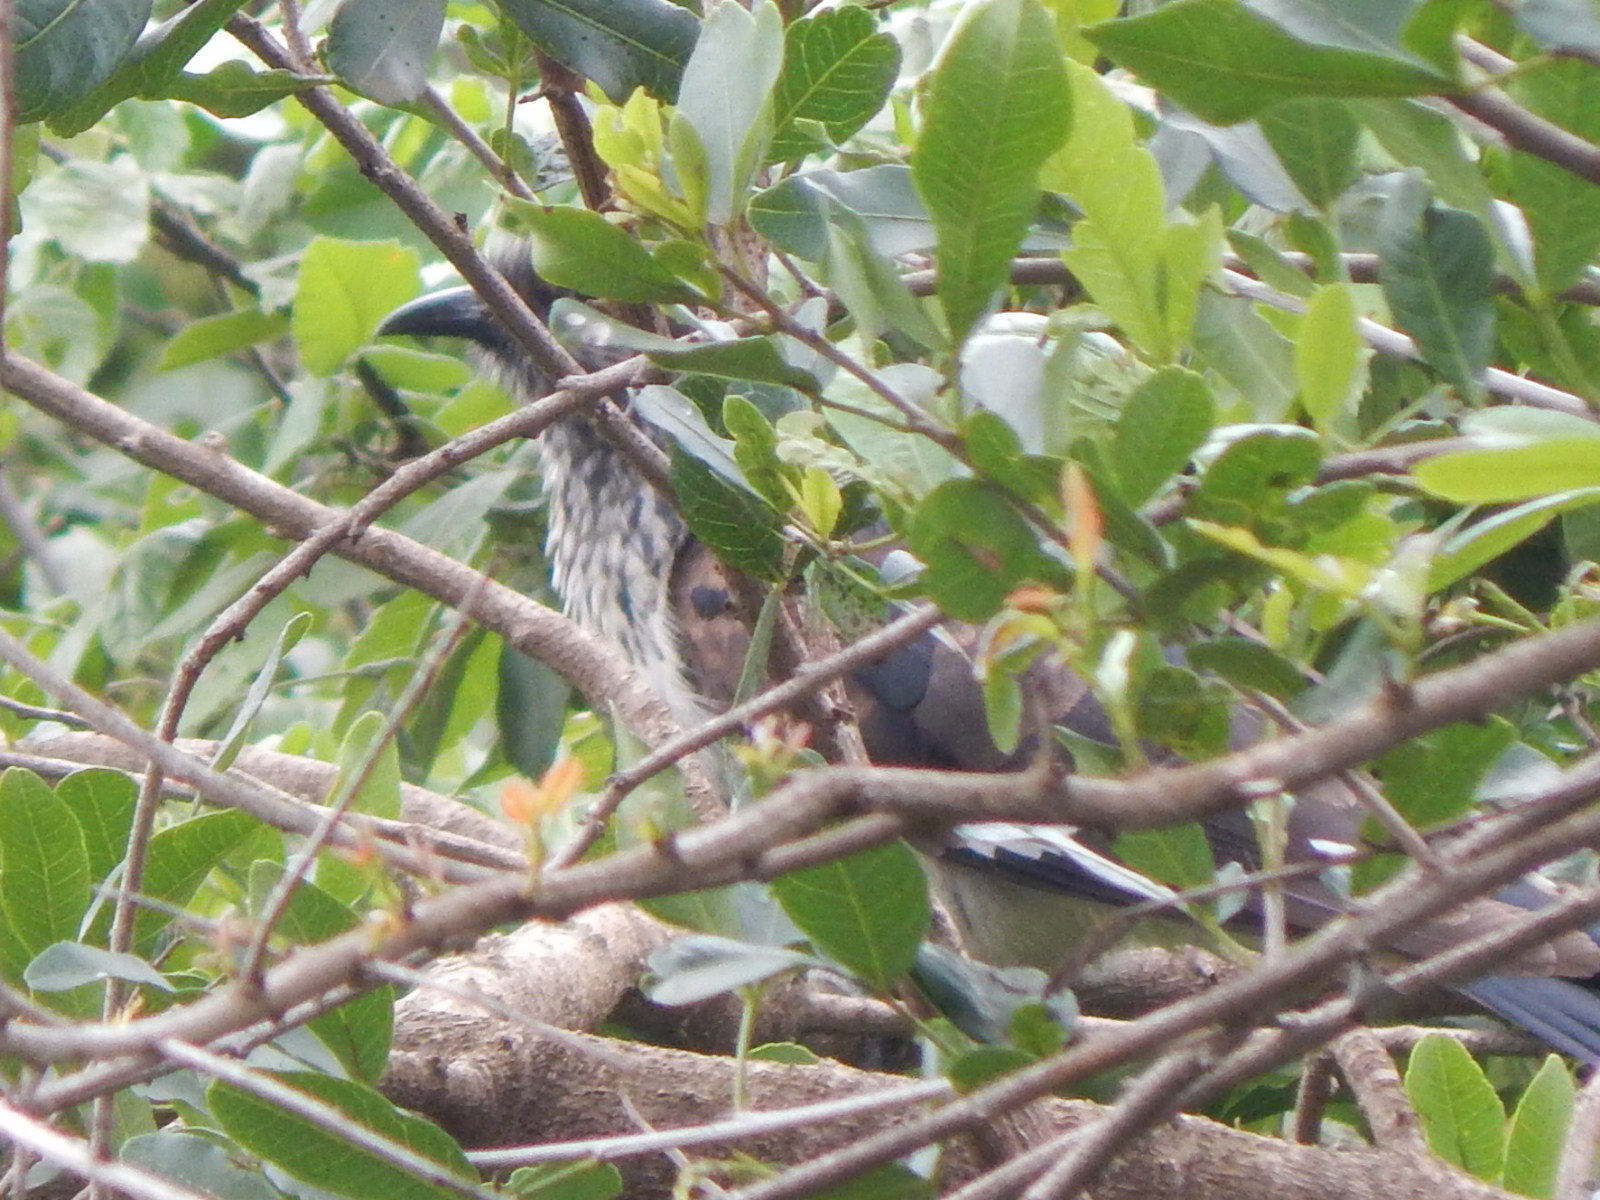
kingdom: Animalia
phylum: Chordata
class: Aves
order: Cuculiformes
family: Cuculidae
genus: Clamator
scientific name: Clamator levaillantii
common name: Levaillant's cuckoo
